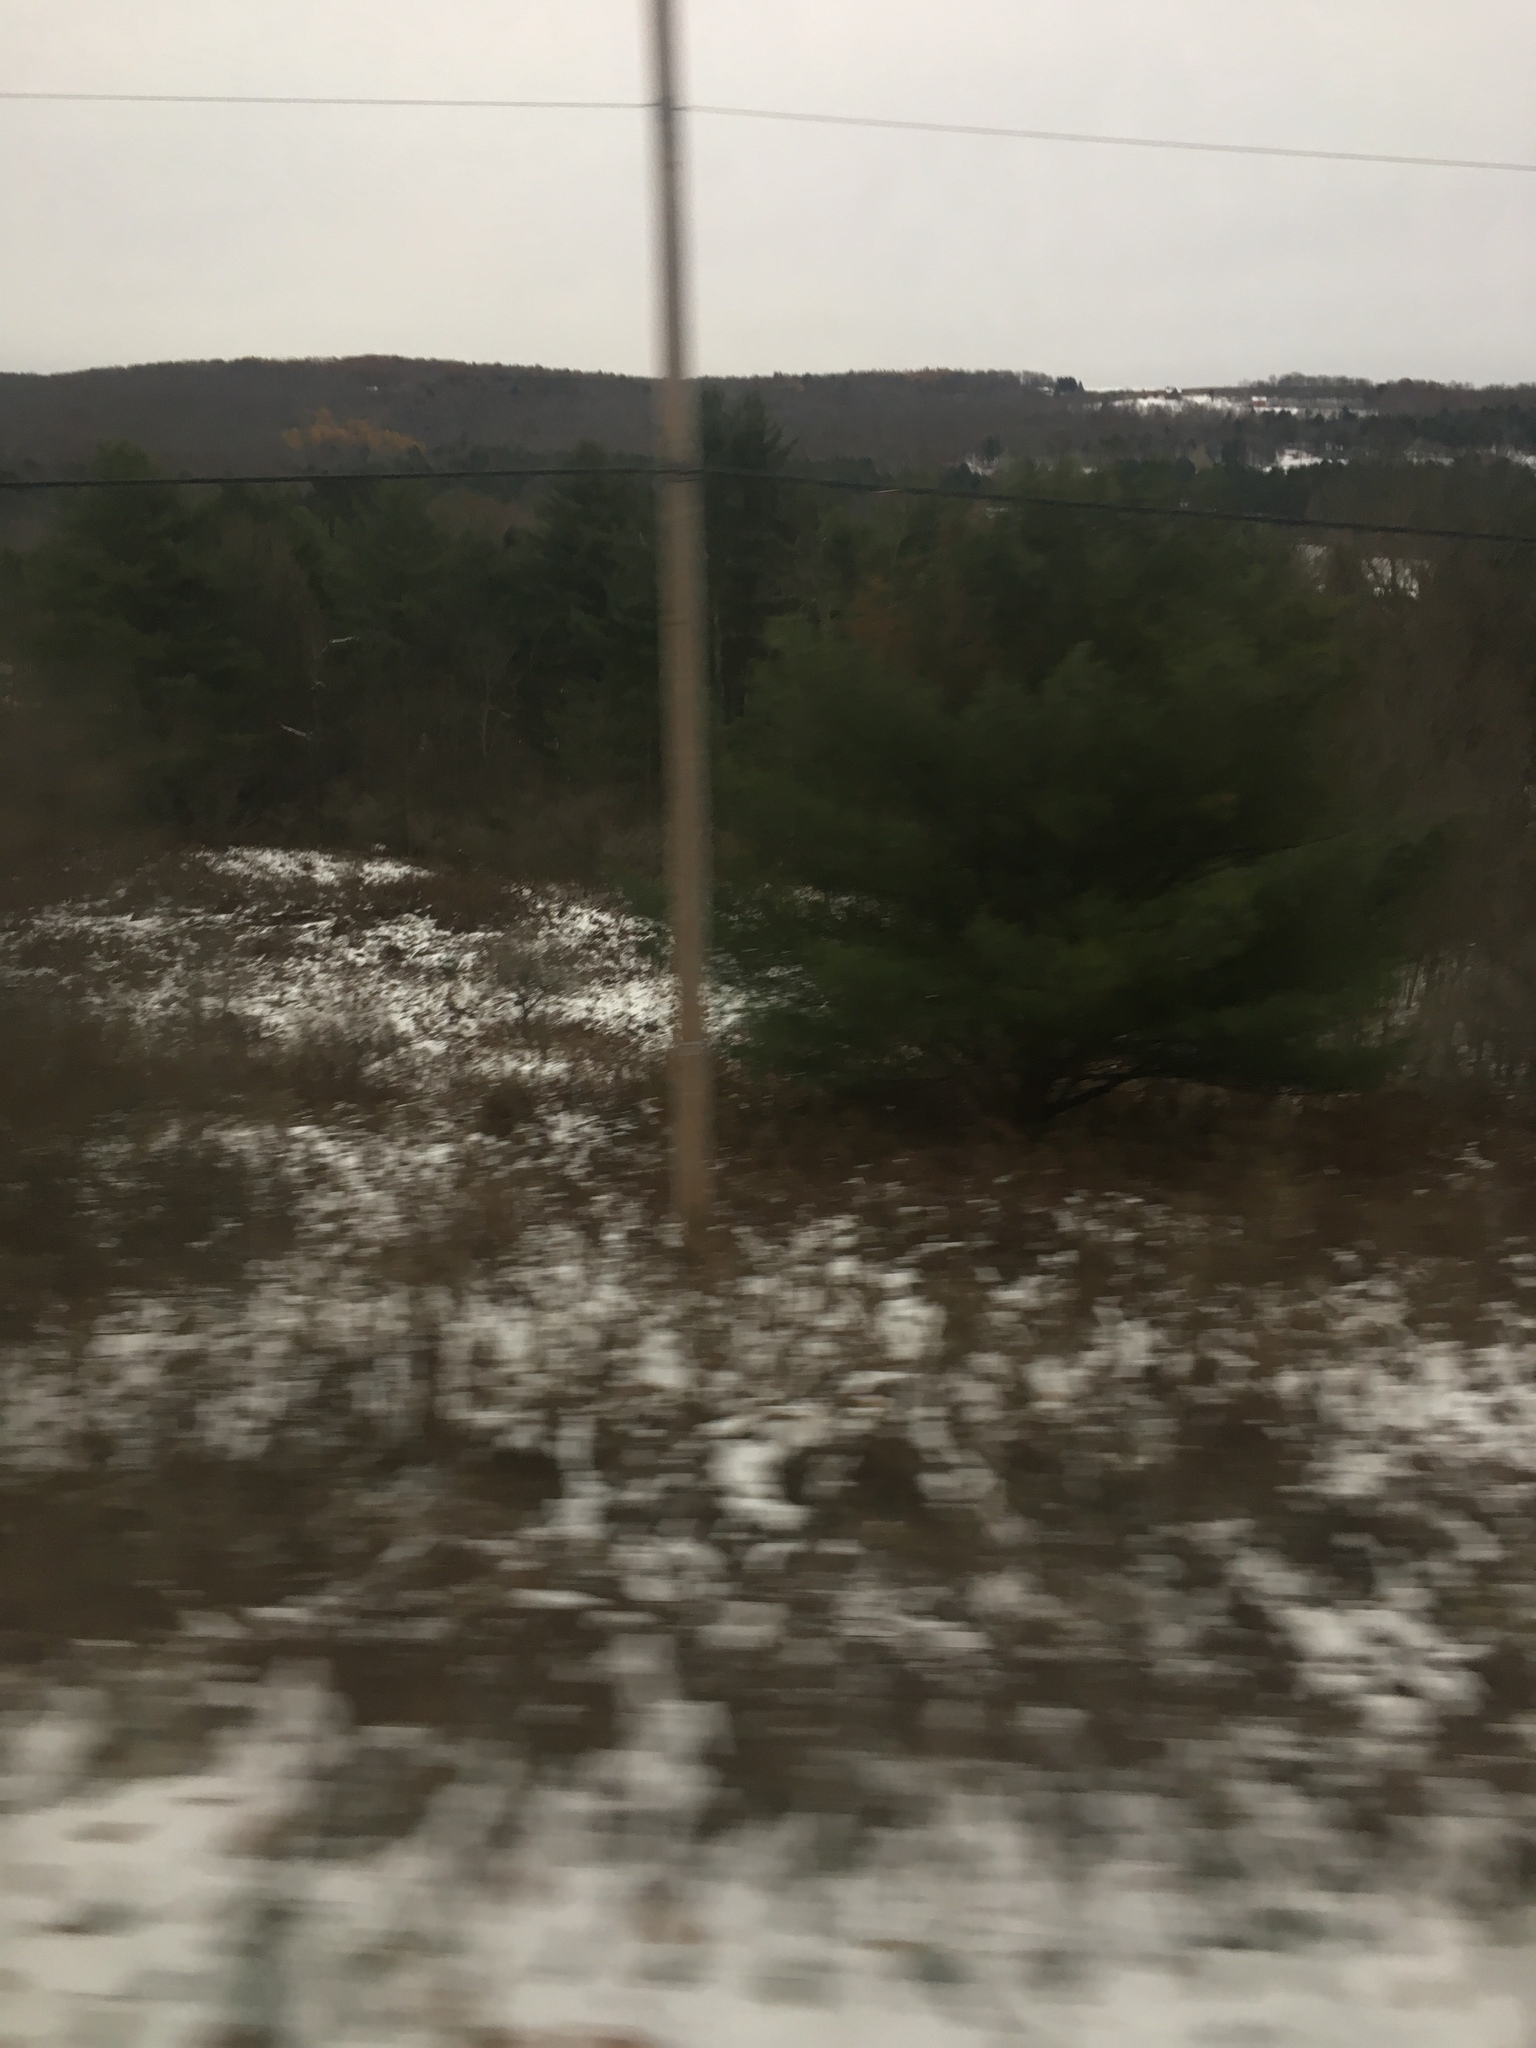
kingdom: Plantae
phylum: Tracheophyta
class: Pinopsida
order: Pinales
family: Pinaceae
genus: Pinus
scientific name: Pinus strobus
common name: Weymouth pine
